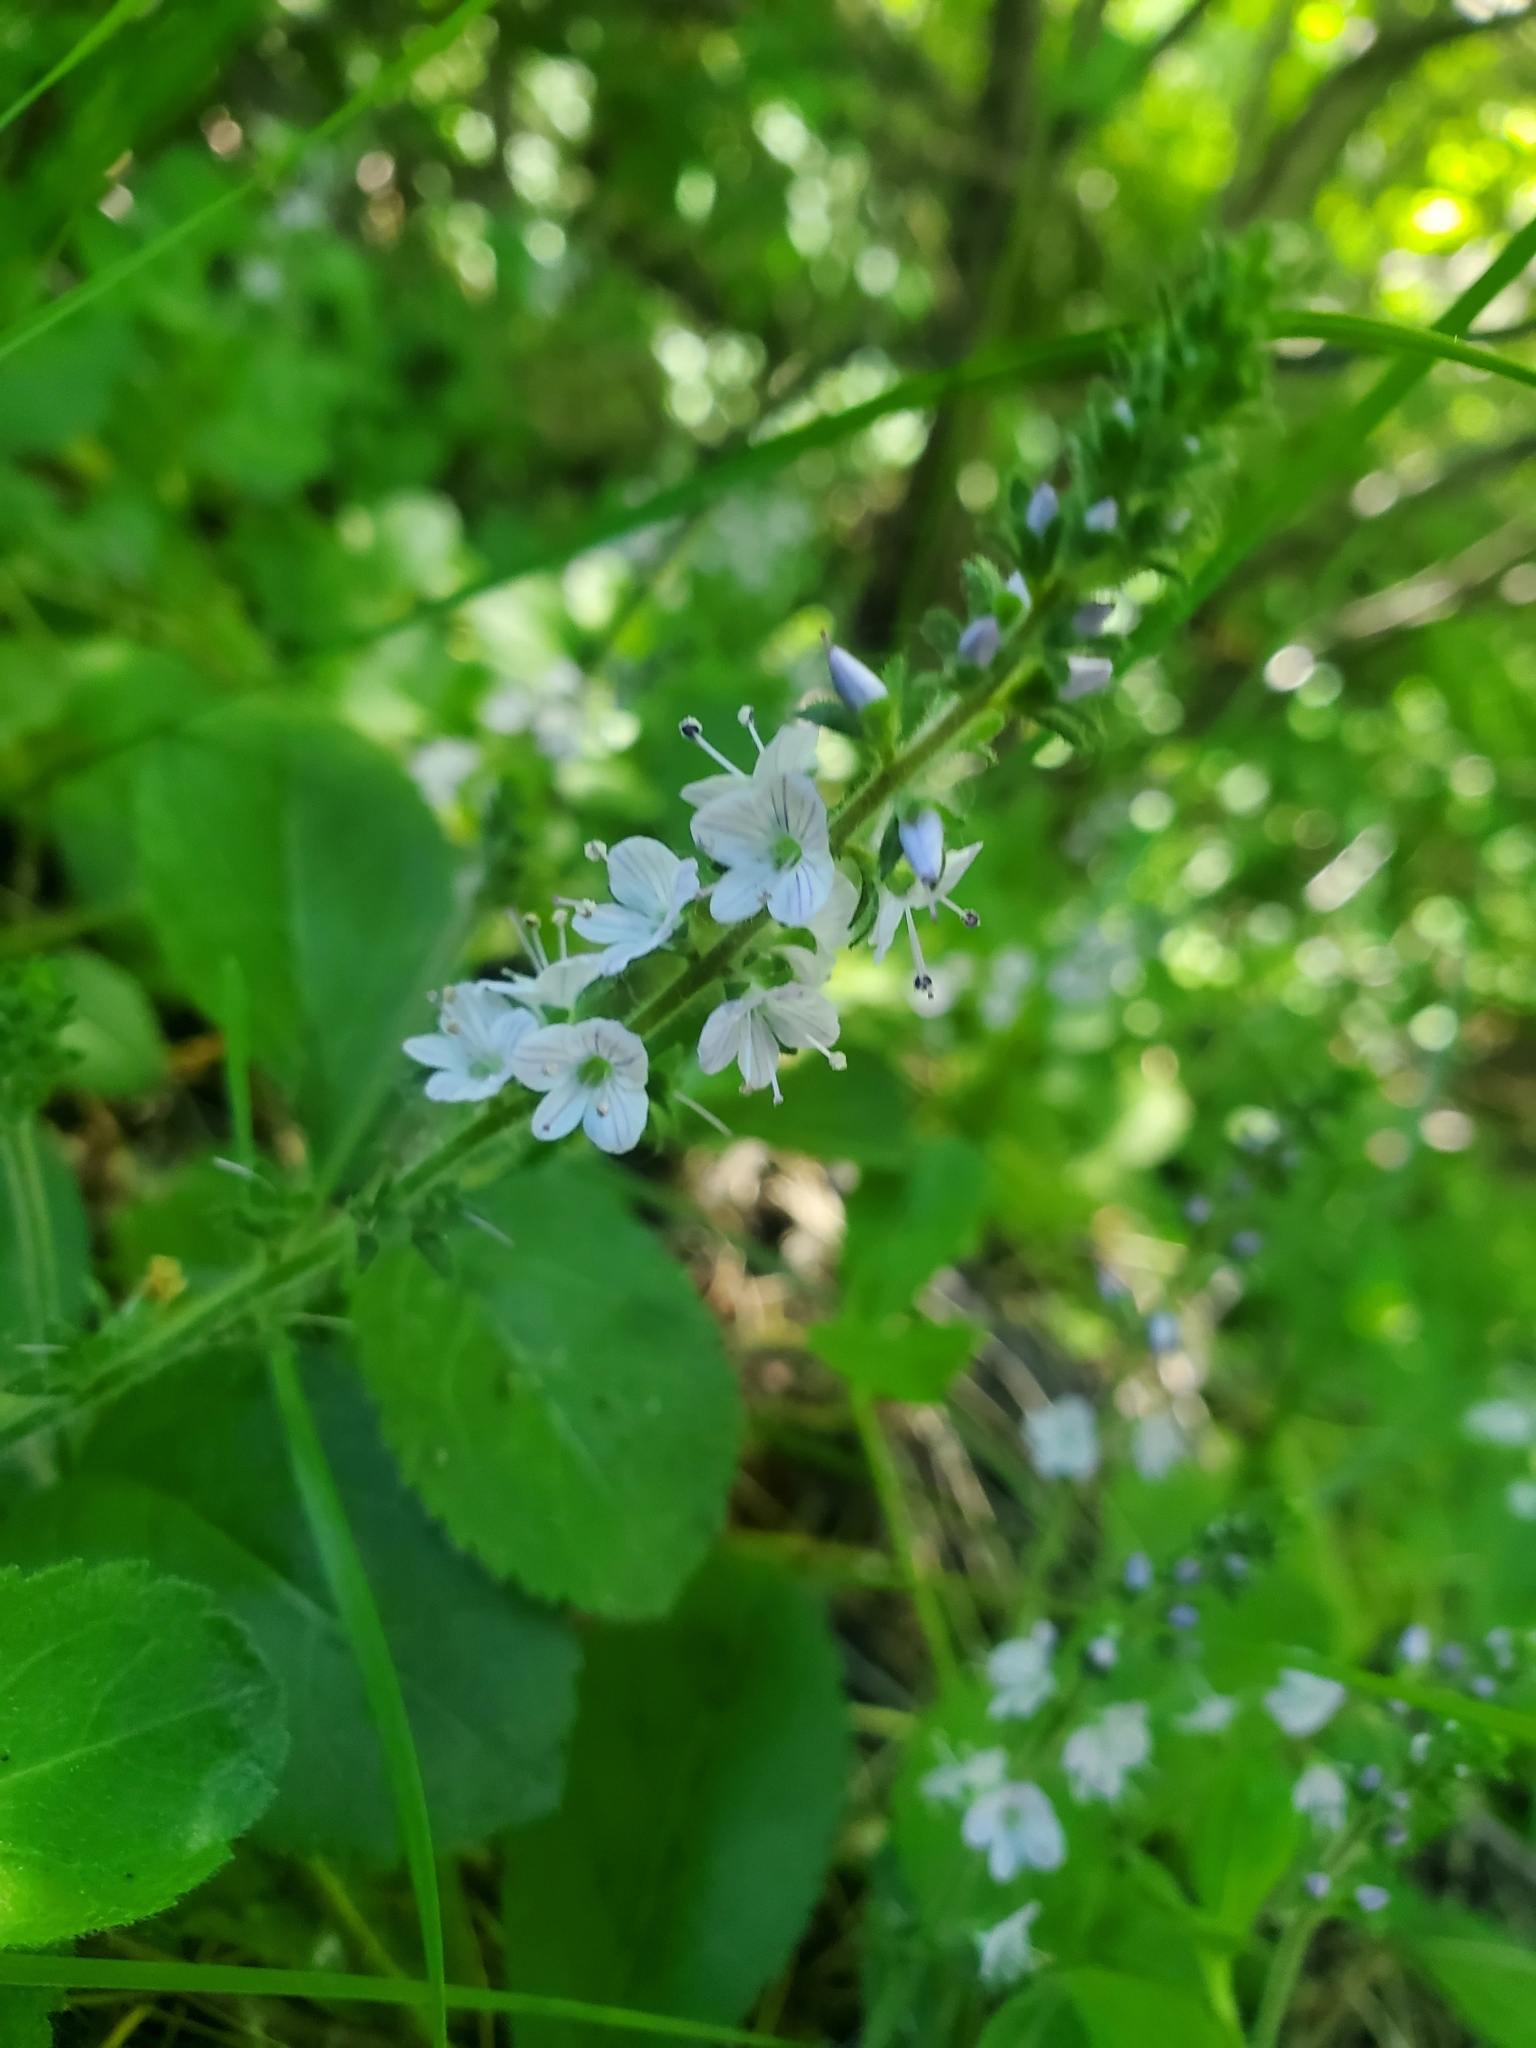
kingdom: Plantae
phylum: Tracheophyta
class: Magnoliopsida
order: Lamiales
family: Plantaginaceae
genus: Veronica
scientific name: Veronica officinalis
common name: Common speedwell
